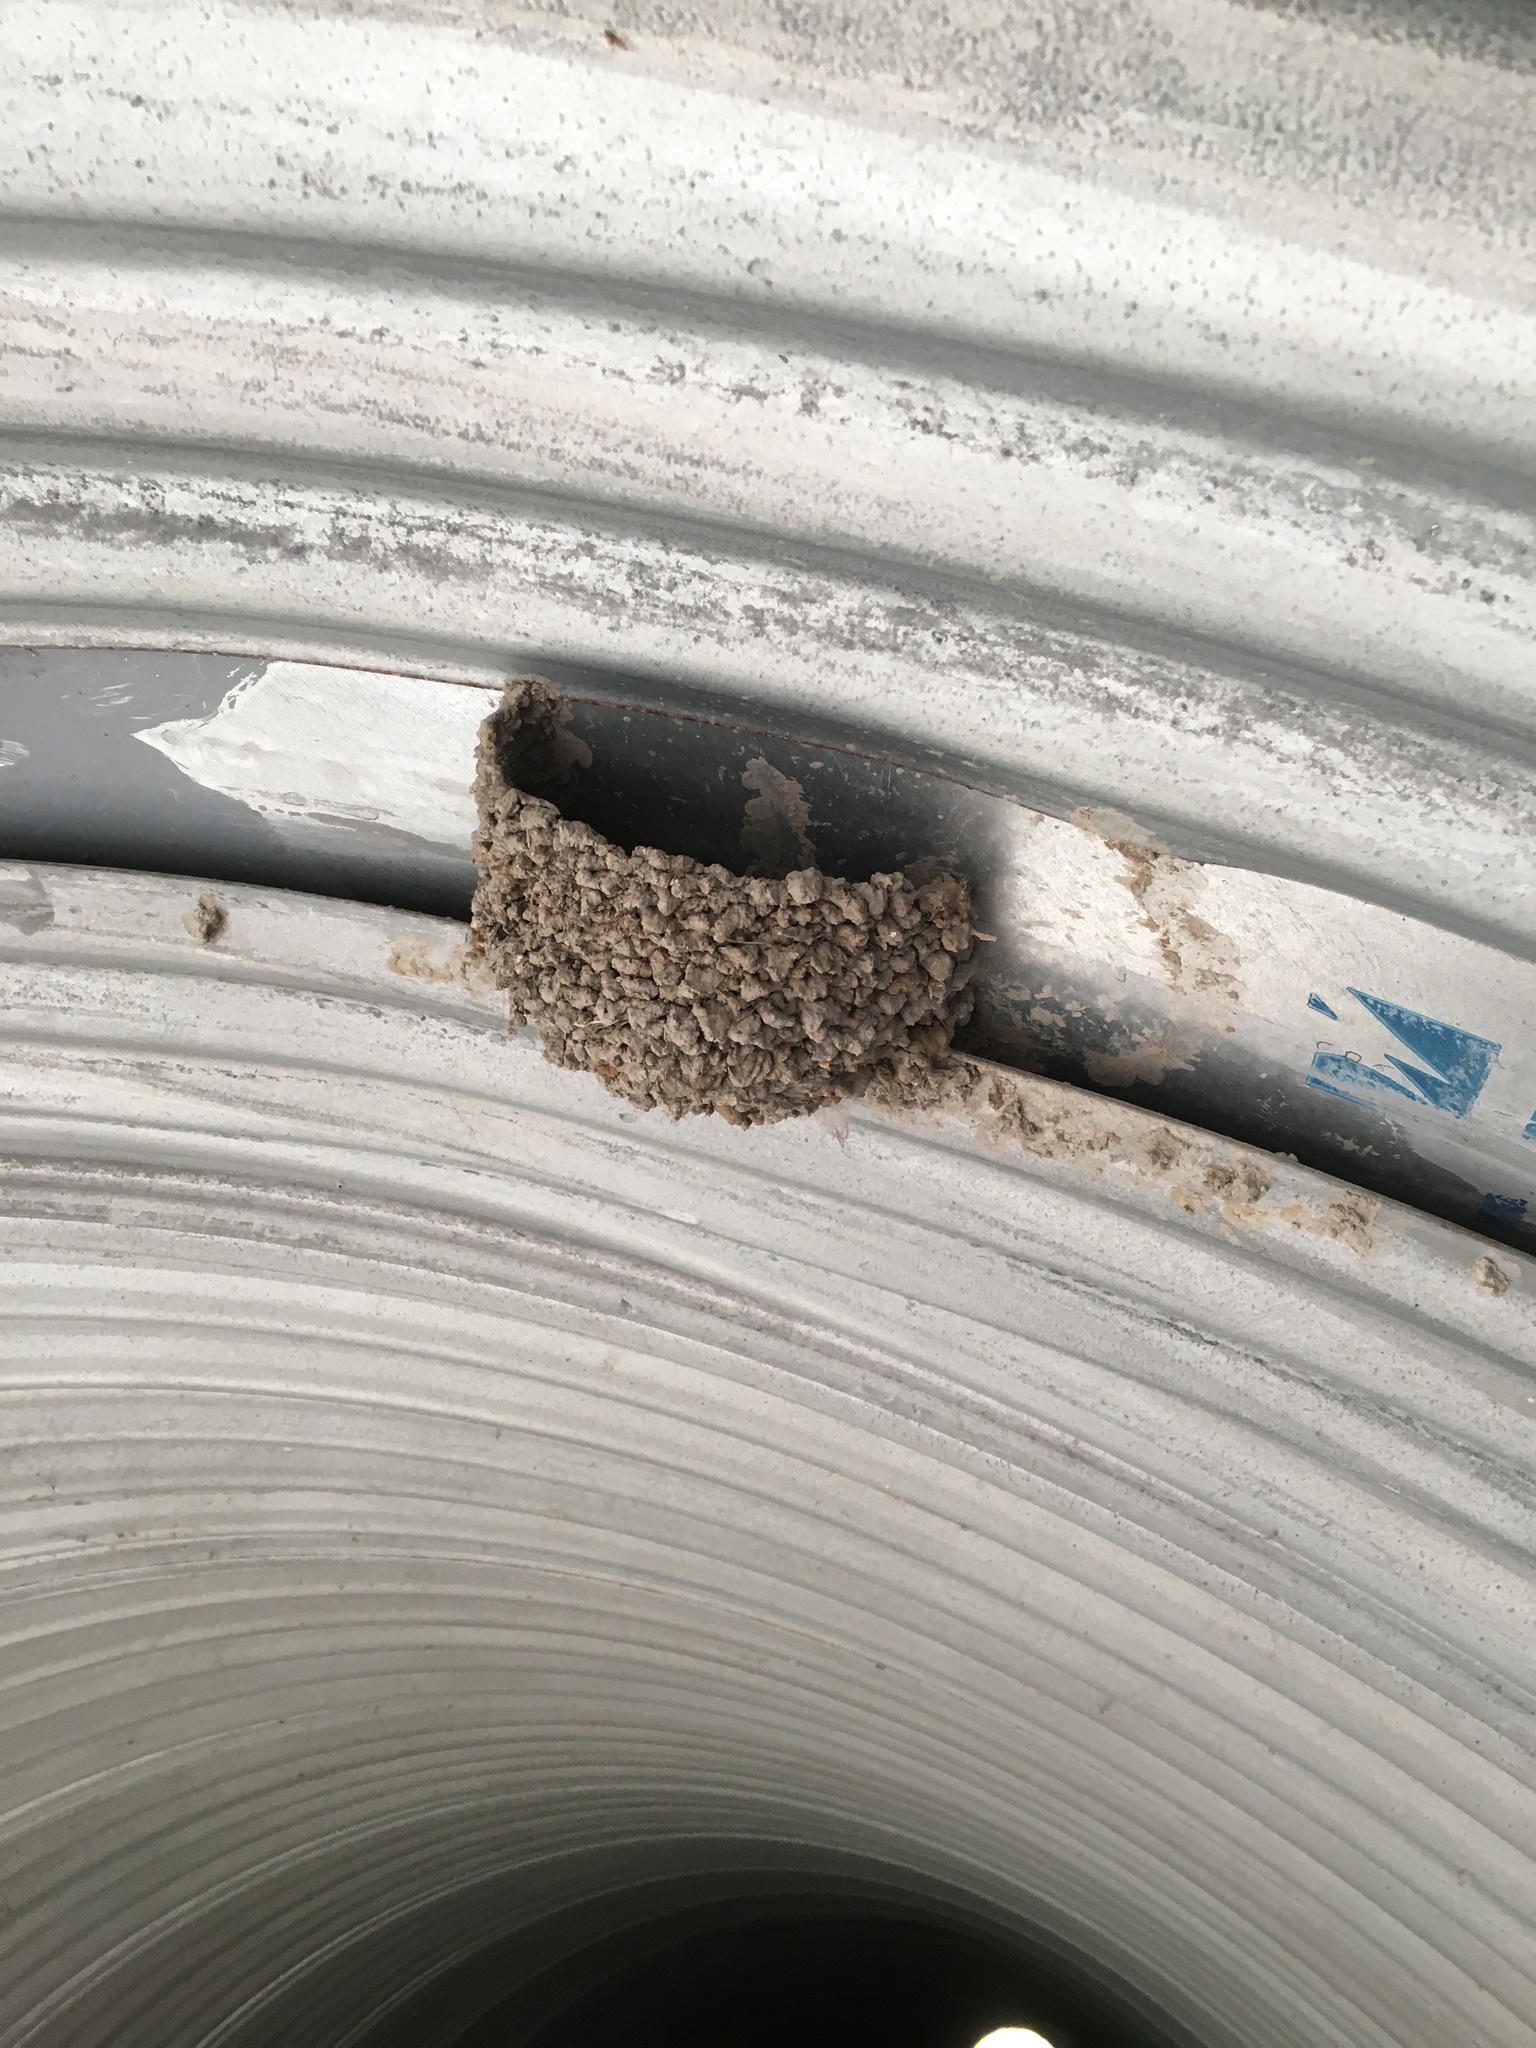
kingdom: Animalia
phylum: Chordata
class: Aves
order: Passeriformes
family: Hirundinidae
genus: Hirundo
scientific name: Hirundo rustica
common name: Barn swallow
